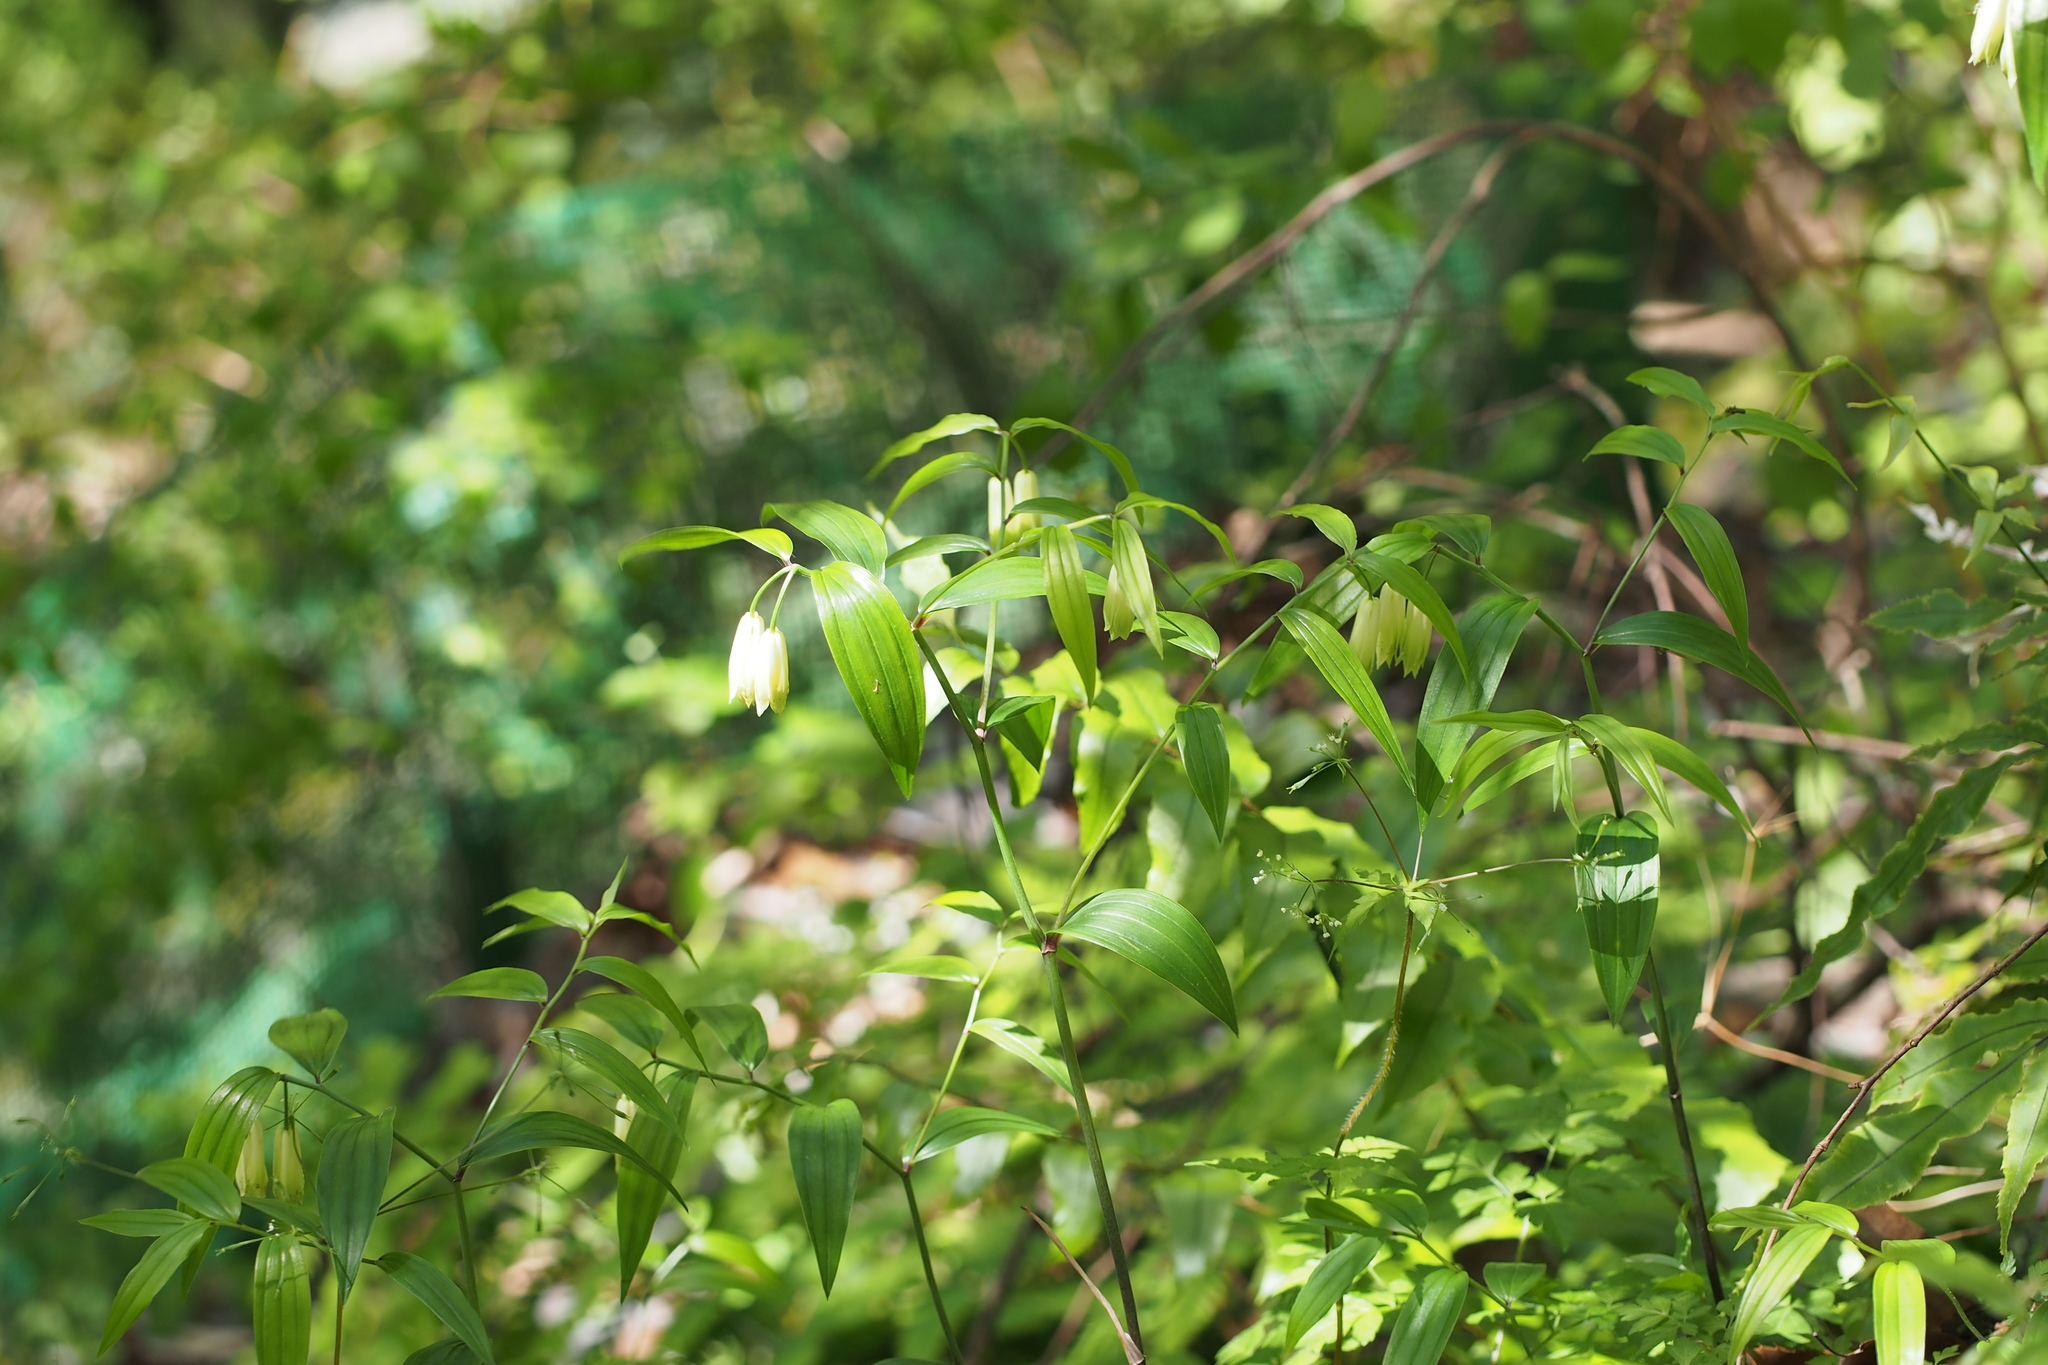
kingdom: Plantae
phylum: Tracheophyta
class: Liliopsida
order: Liliales
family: Colchicaceae
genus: Disporum
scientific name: Disporum sessile
